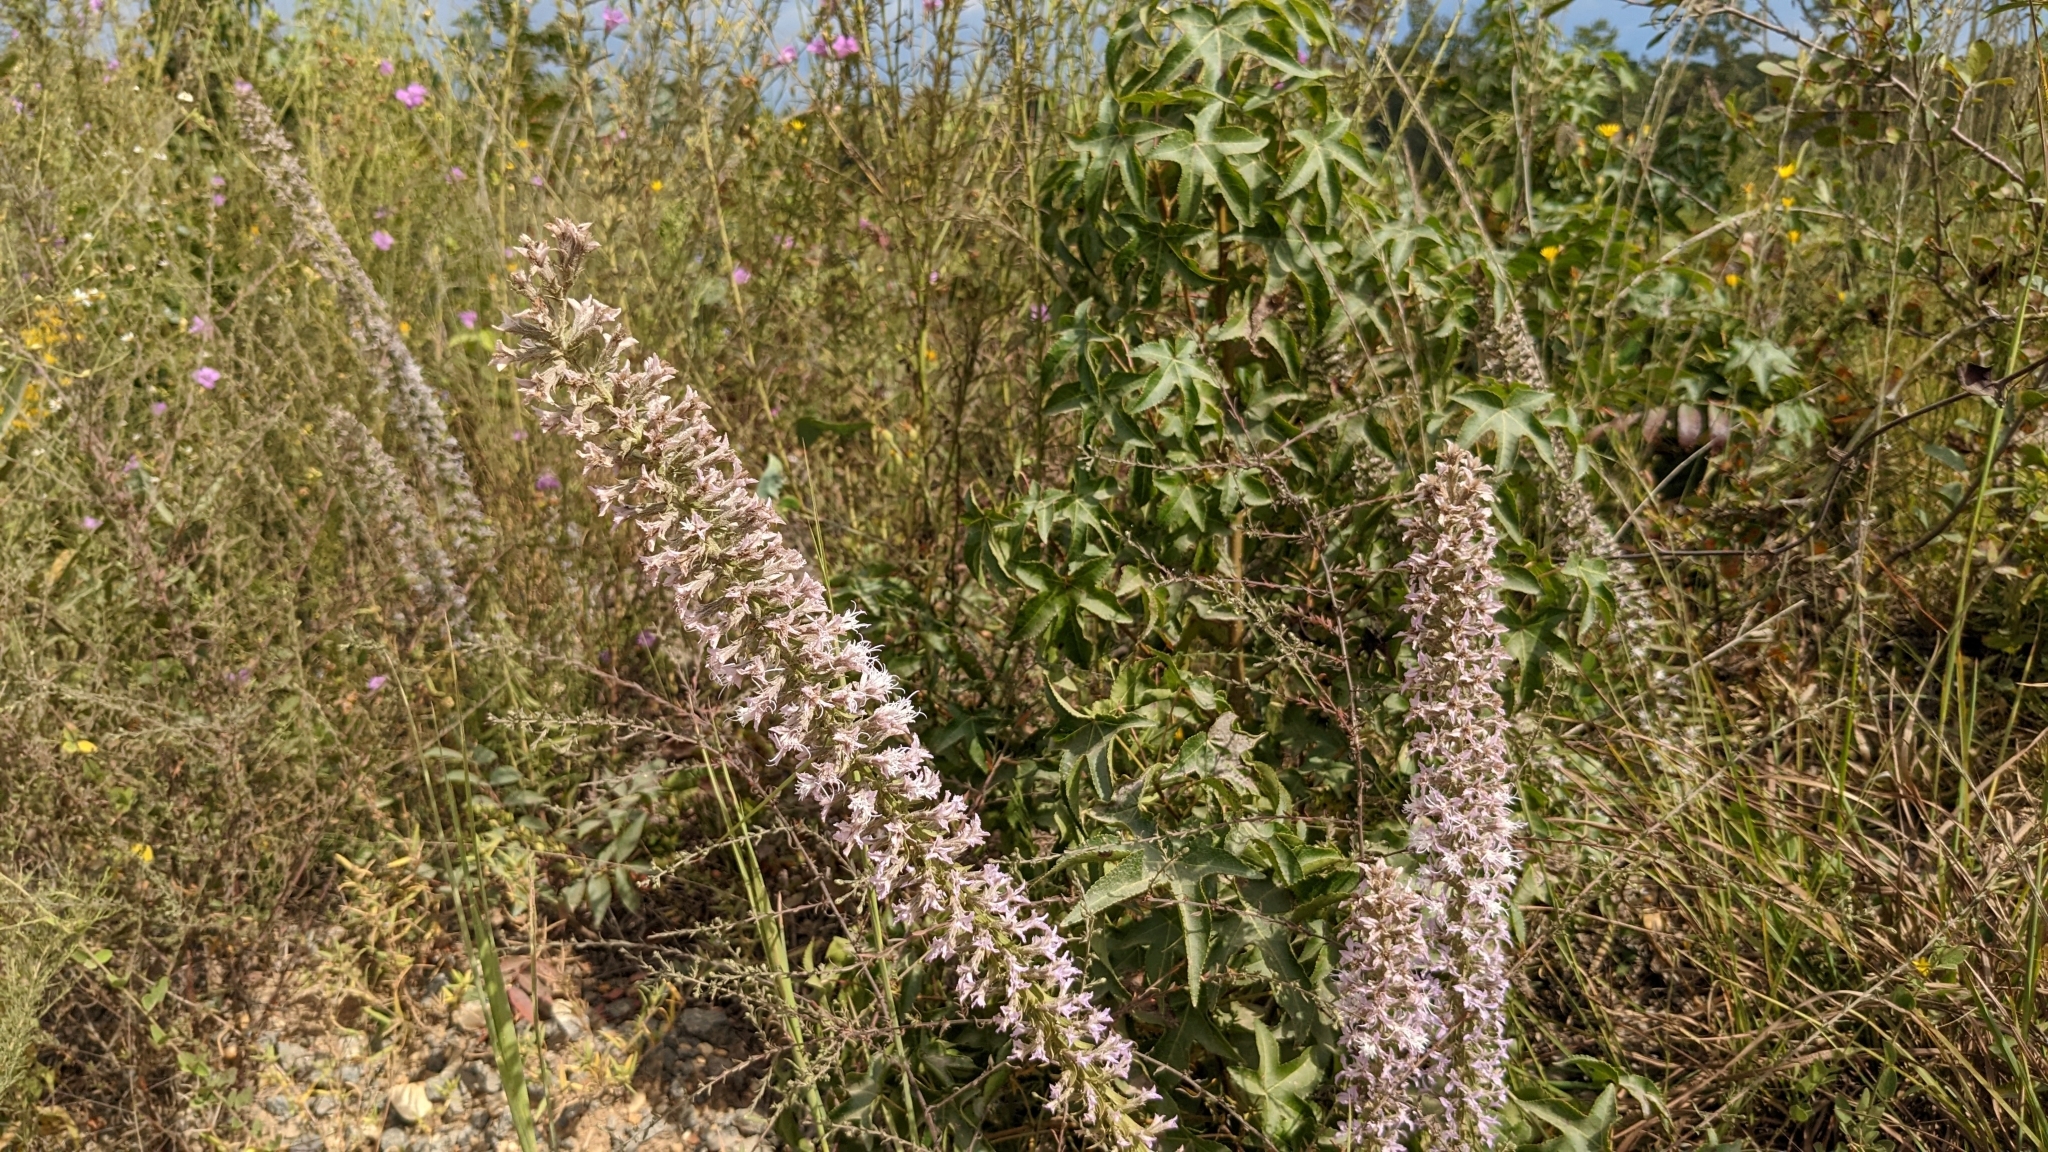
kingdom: Plantae
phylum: Tracheophyta
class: Magnoliopsida
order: Asterales
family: Asteraceae
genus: Liatris
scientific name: Liatris hesperelegans
